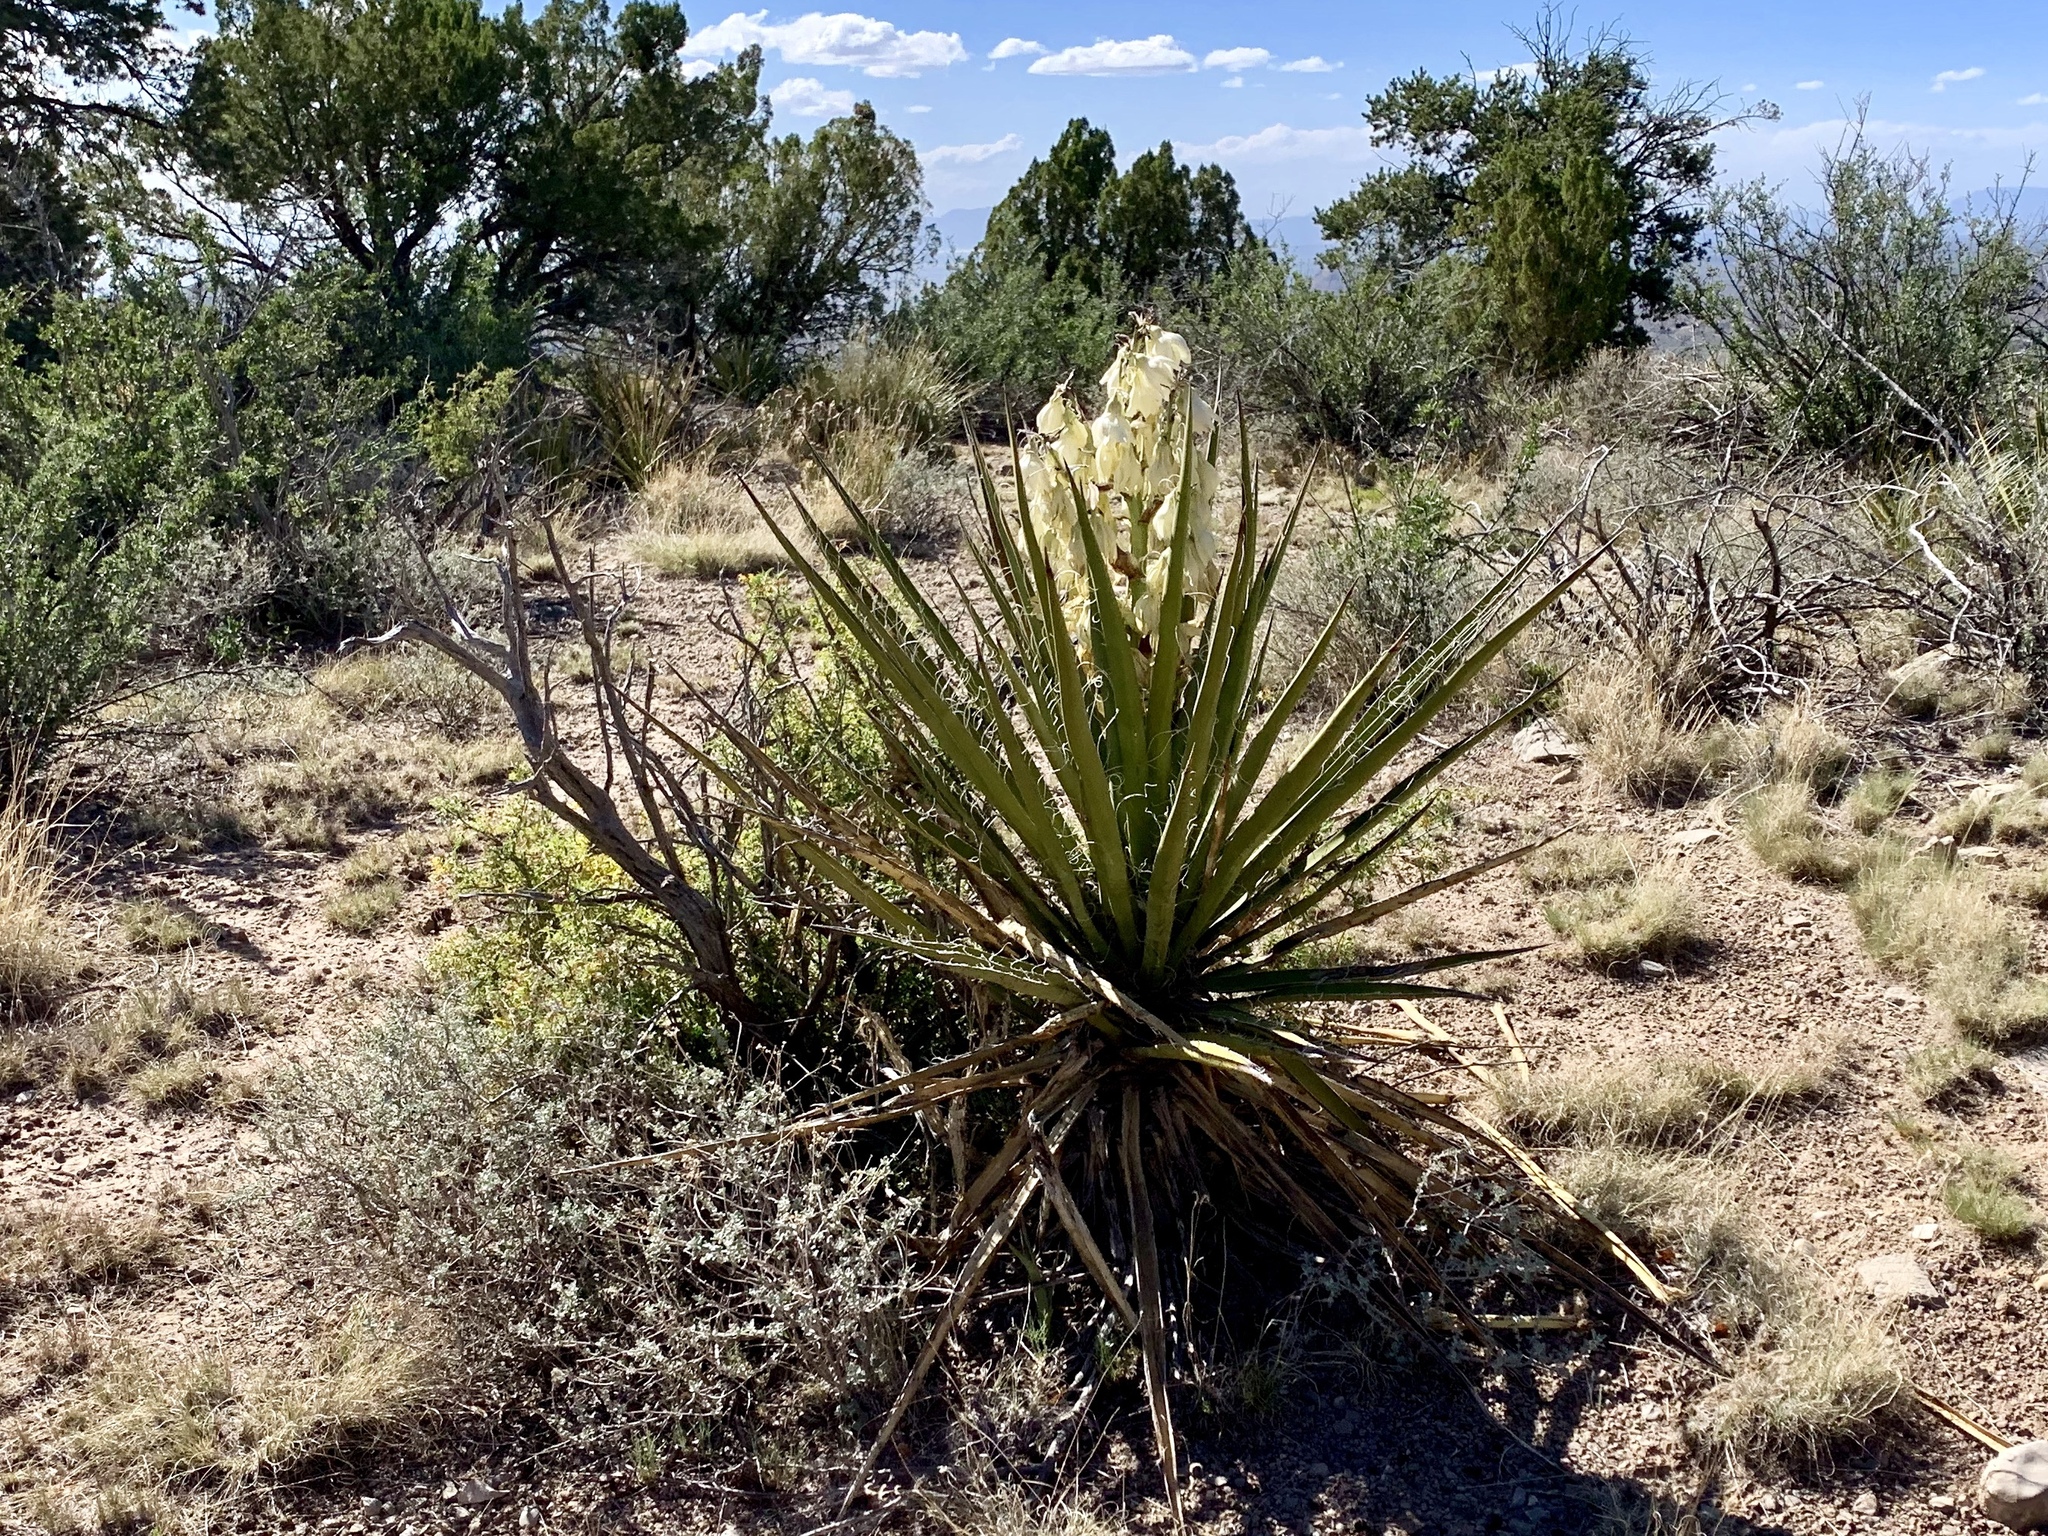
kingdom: Plantae
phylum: Tracheophyta
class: Liliopsida
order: Asparagales
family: Asparagaceae
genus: Yucca
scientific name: Yucca baccata
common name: Banana yucca
